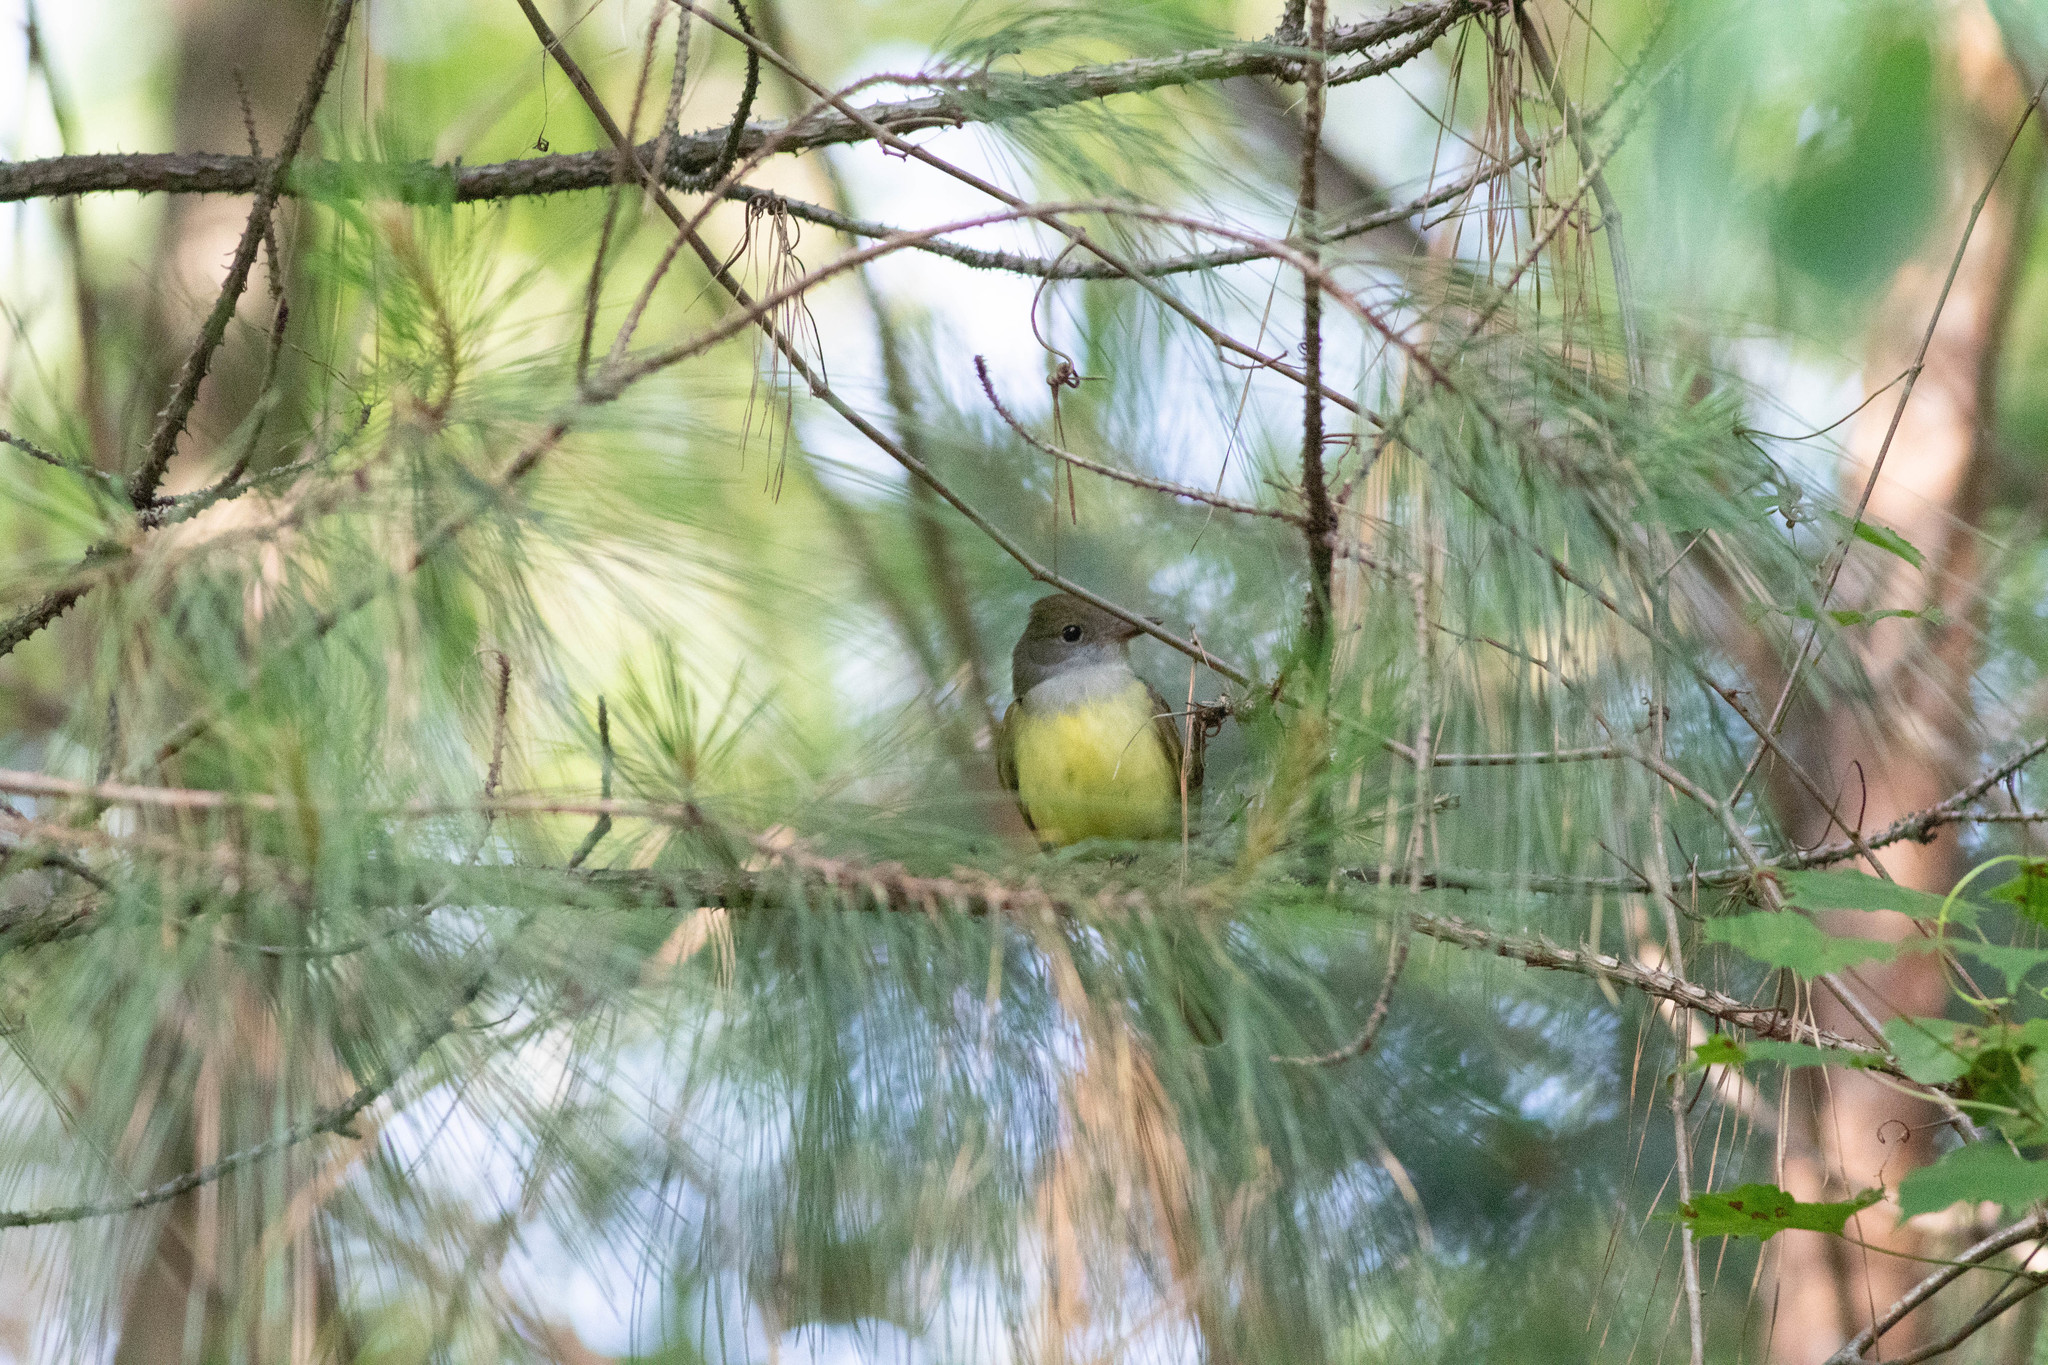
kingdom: Animalia
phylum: Chordata
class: Aves
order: Passeriformes
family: Tyrannidae
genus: Myiarchus
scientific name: Myiarchus crinitus
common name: Great crested flycatcher
